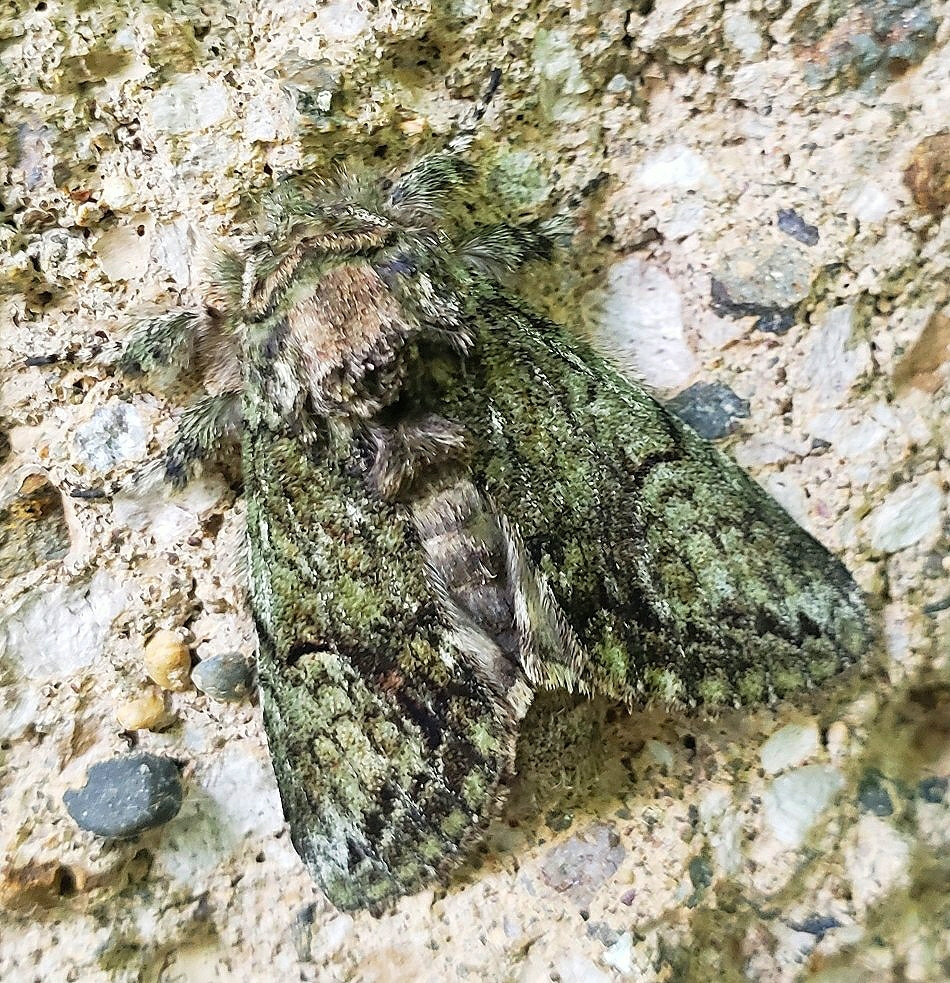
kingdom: Animalia
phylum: Arthropoda
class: Insecta
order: Lepidoptera
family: Notodontidae
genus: Heterocampa
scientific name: Heterocampa
